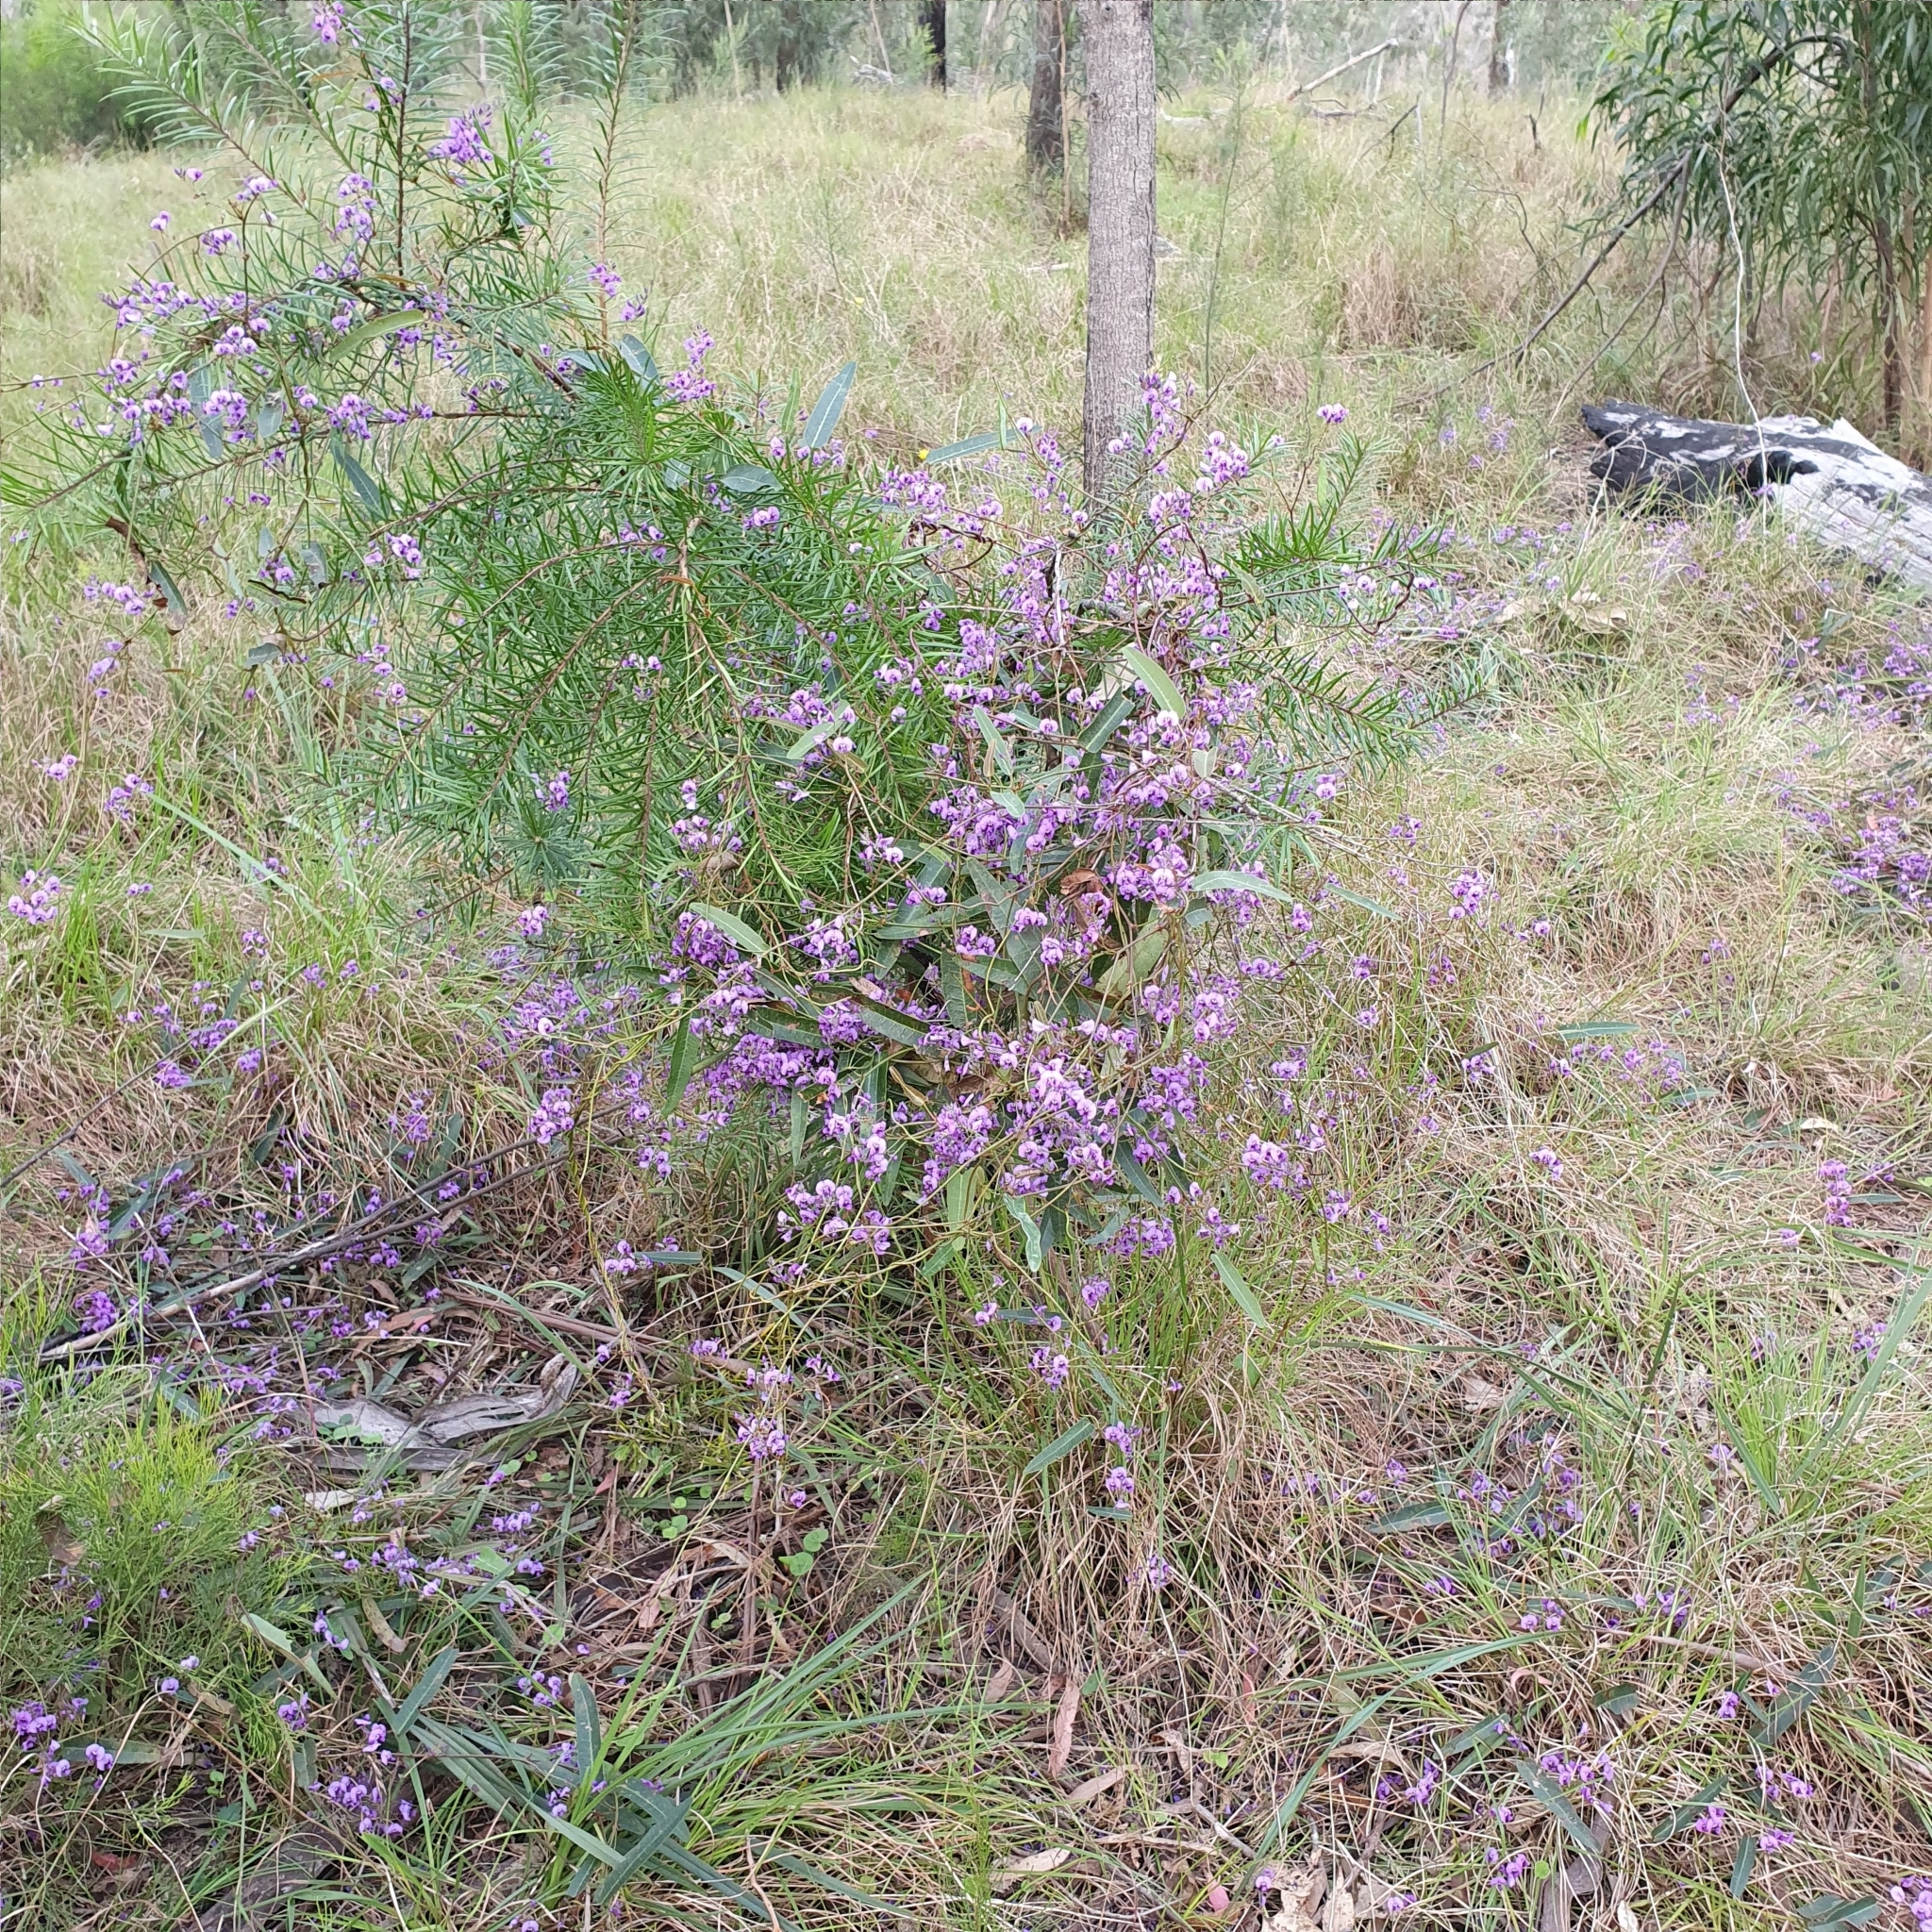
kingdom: Plantae
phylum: Tracheophyta
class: Magnoliopsida
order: Fabales
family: Fabaceae
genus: Hardenbergia
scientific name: Hardenbergia violacea
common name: Coral-pea
